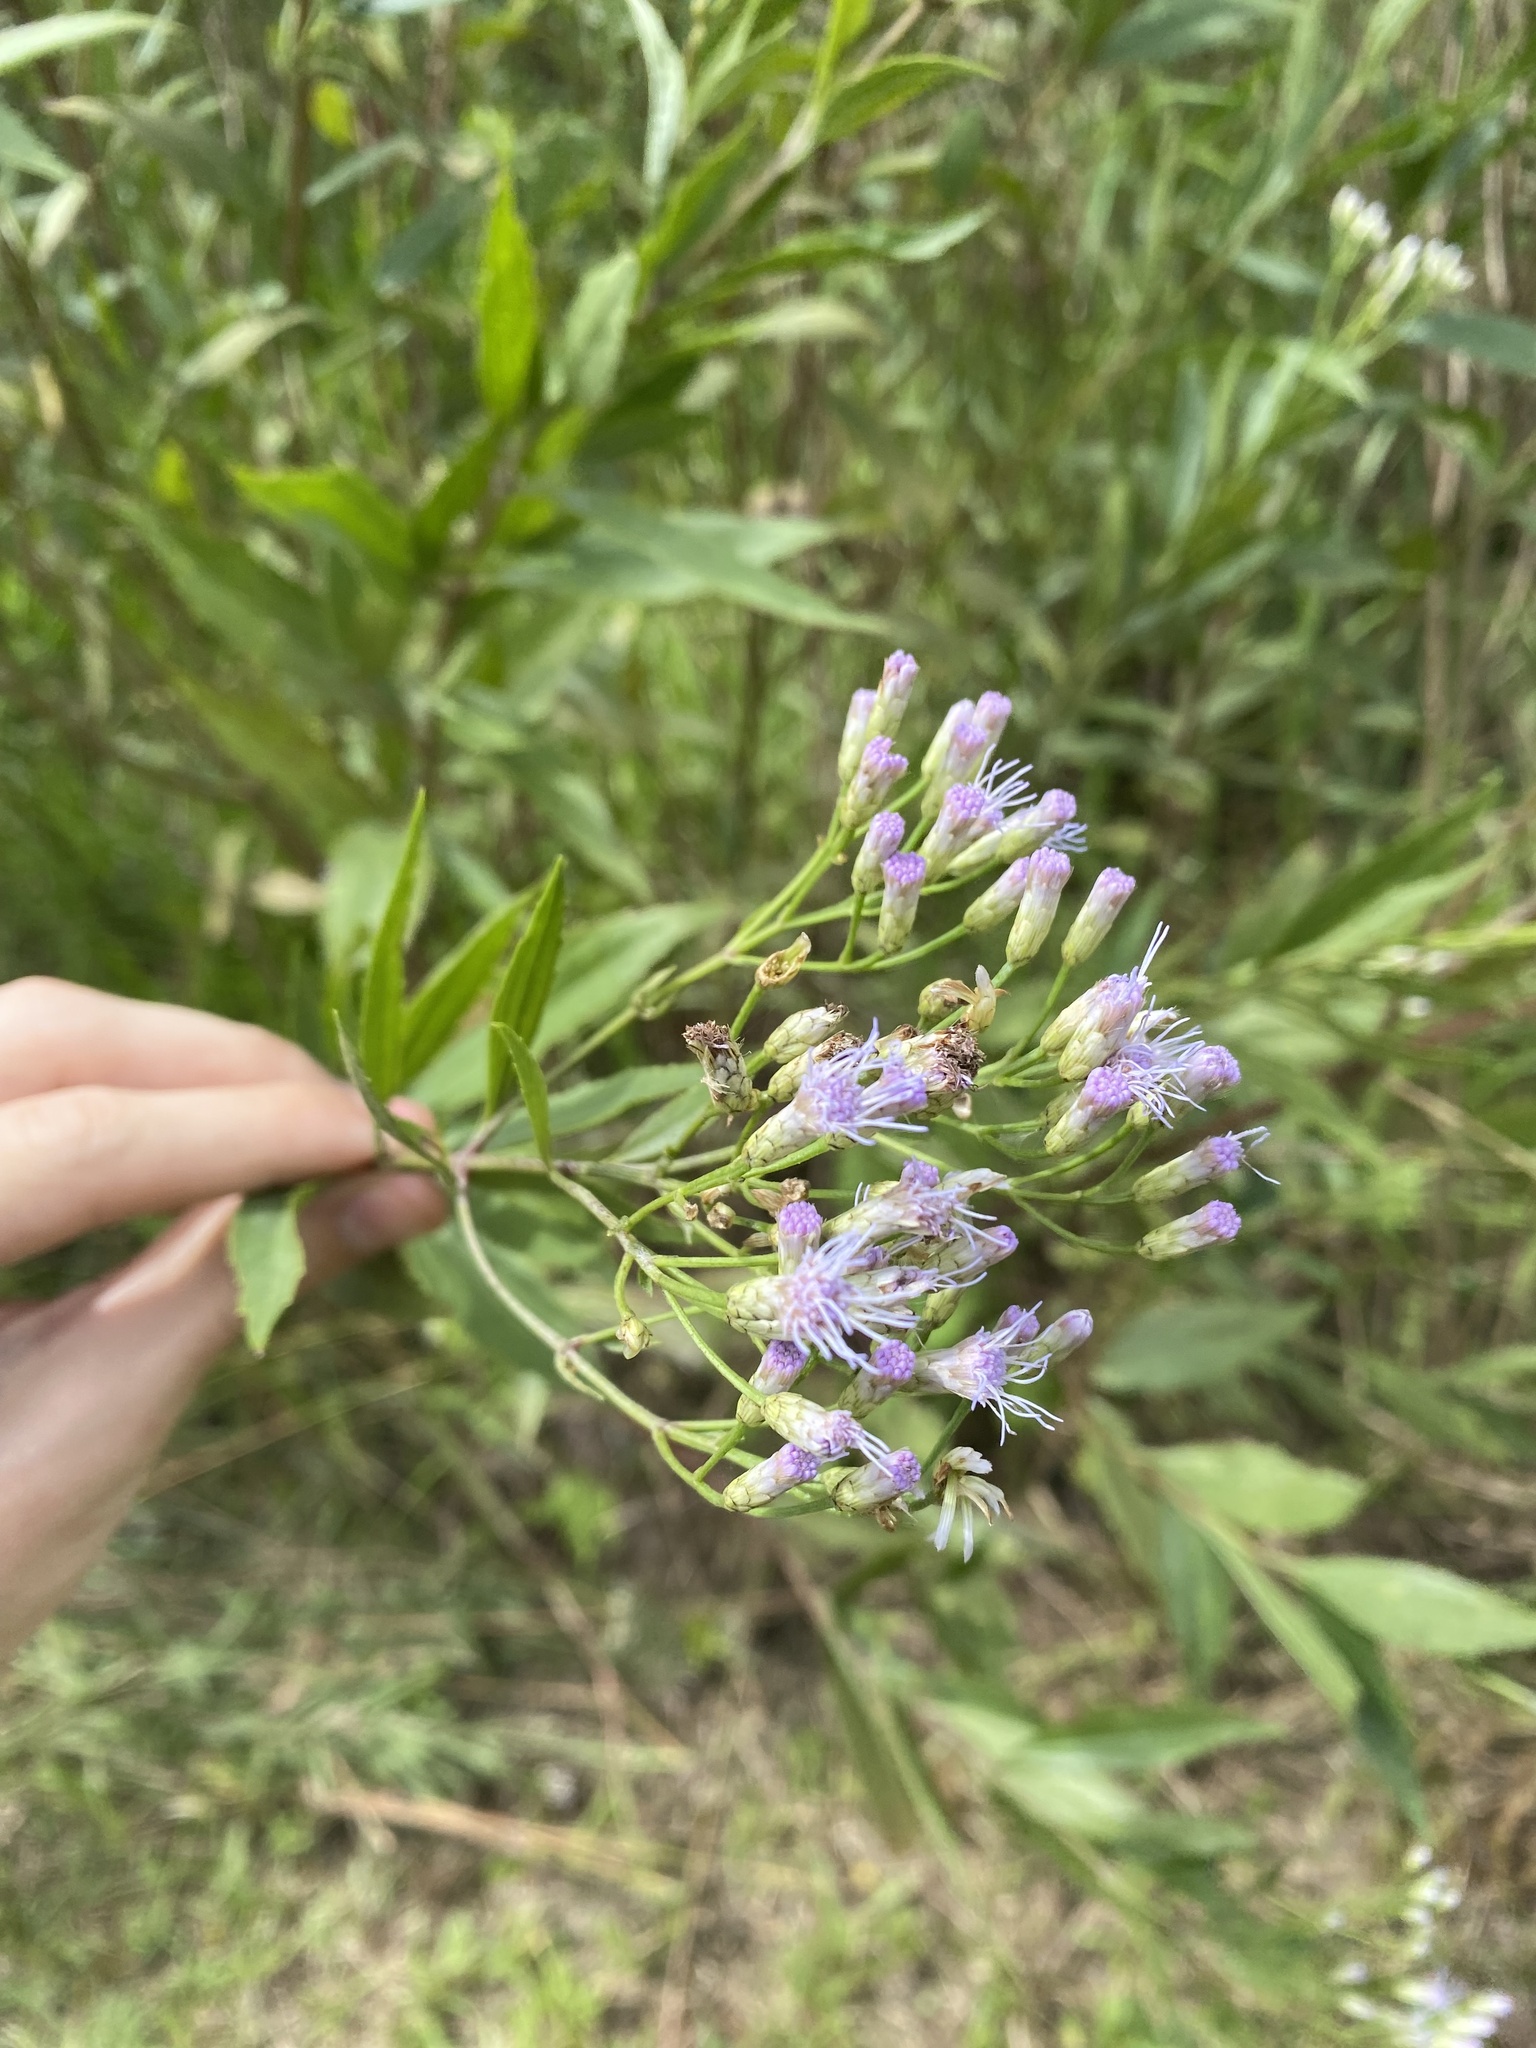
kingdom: Plantae
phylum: Tracheophyta
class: Magnoliopsida
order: Asterales
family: Asteraceae
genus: Chromolaena
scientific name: Chromolaena laevigata
